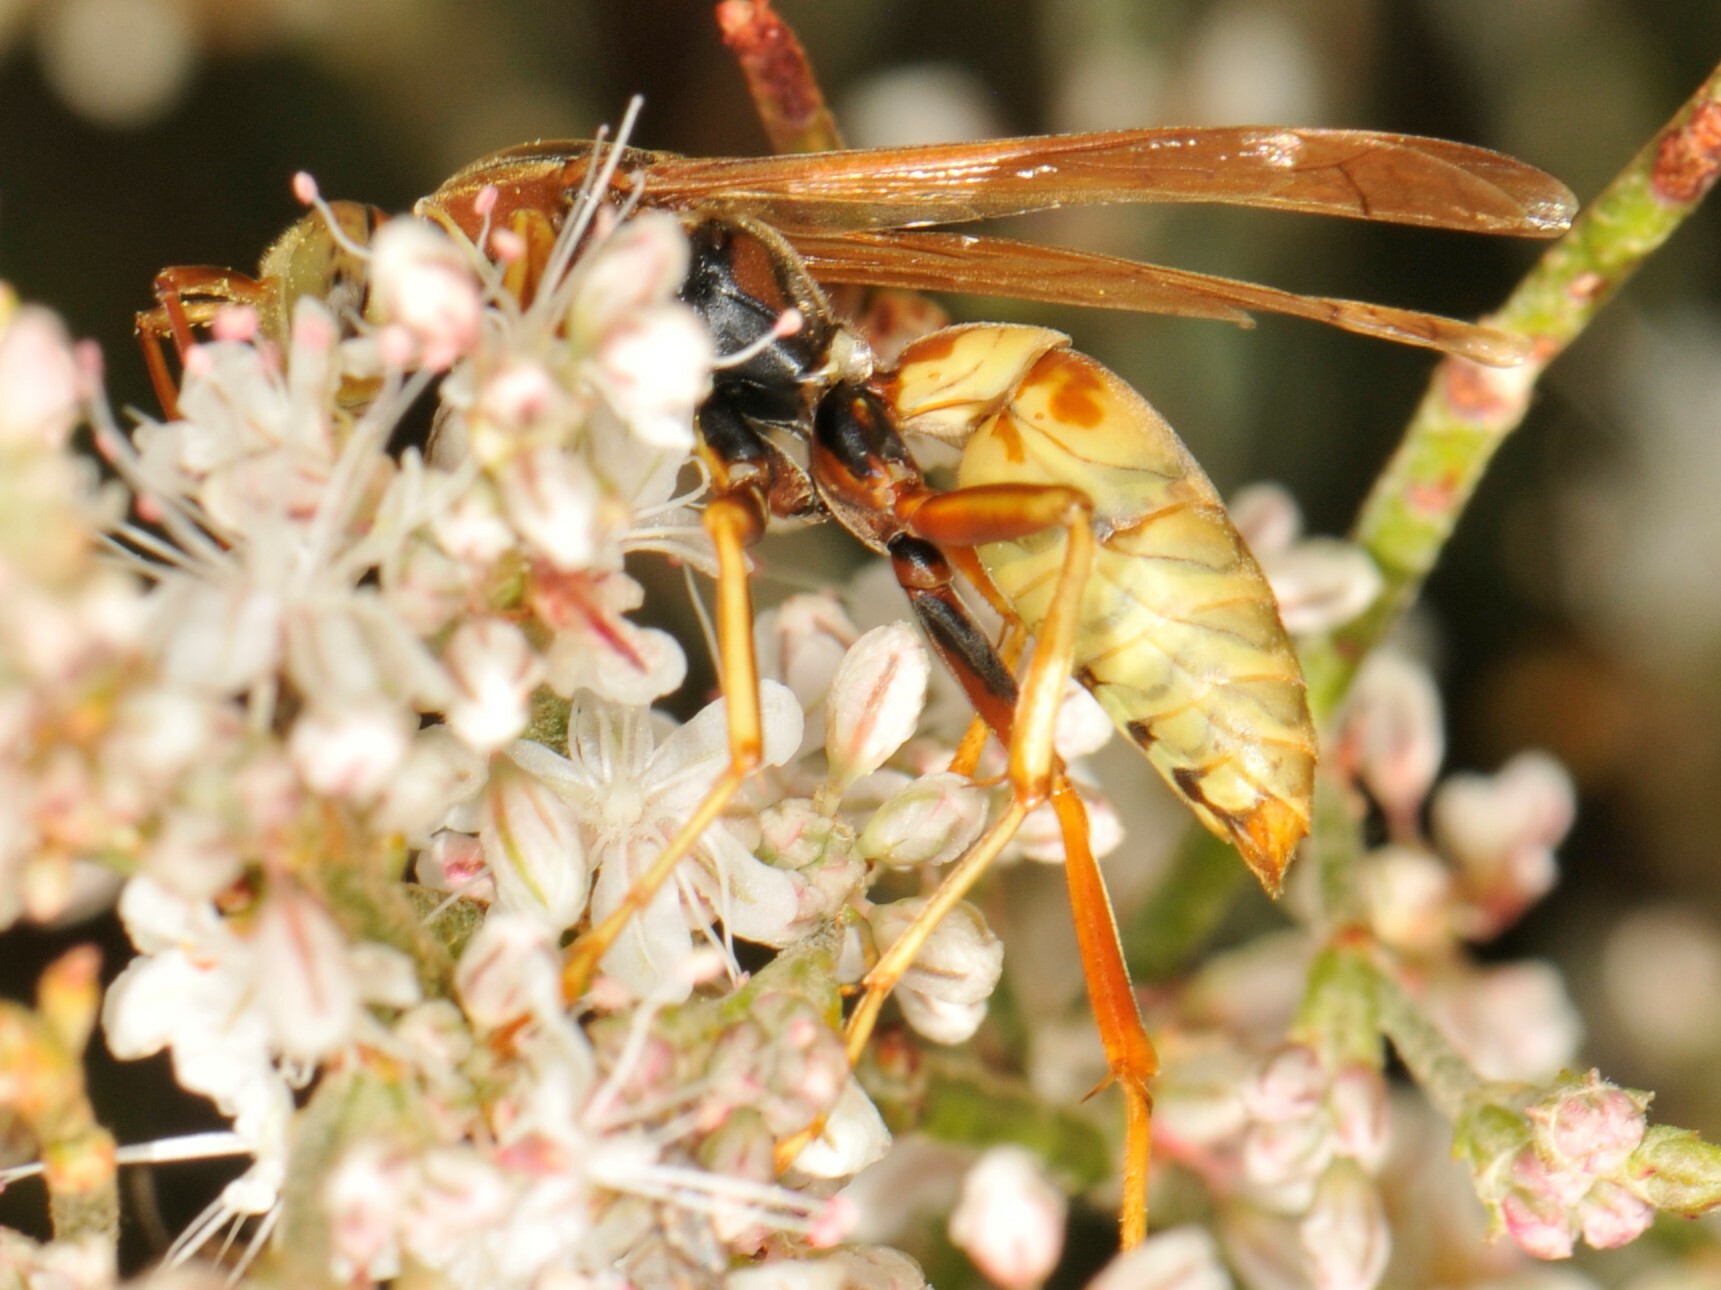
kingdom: Animalia
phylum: Arthropoda
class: Insecta
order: Hymenoptera
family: Eumenidae
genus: Polistes
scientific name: Polistes aurifer
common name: Paper wasp
